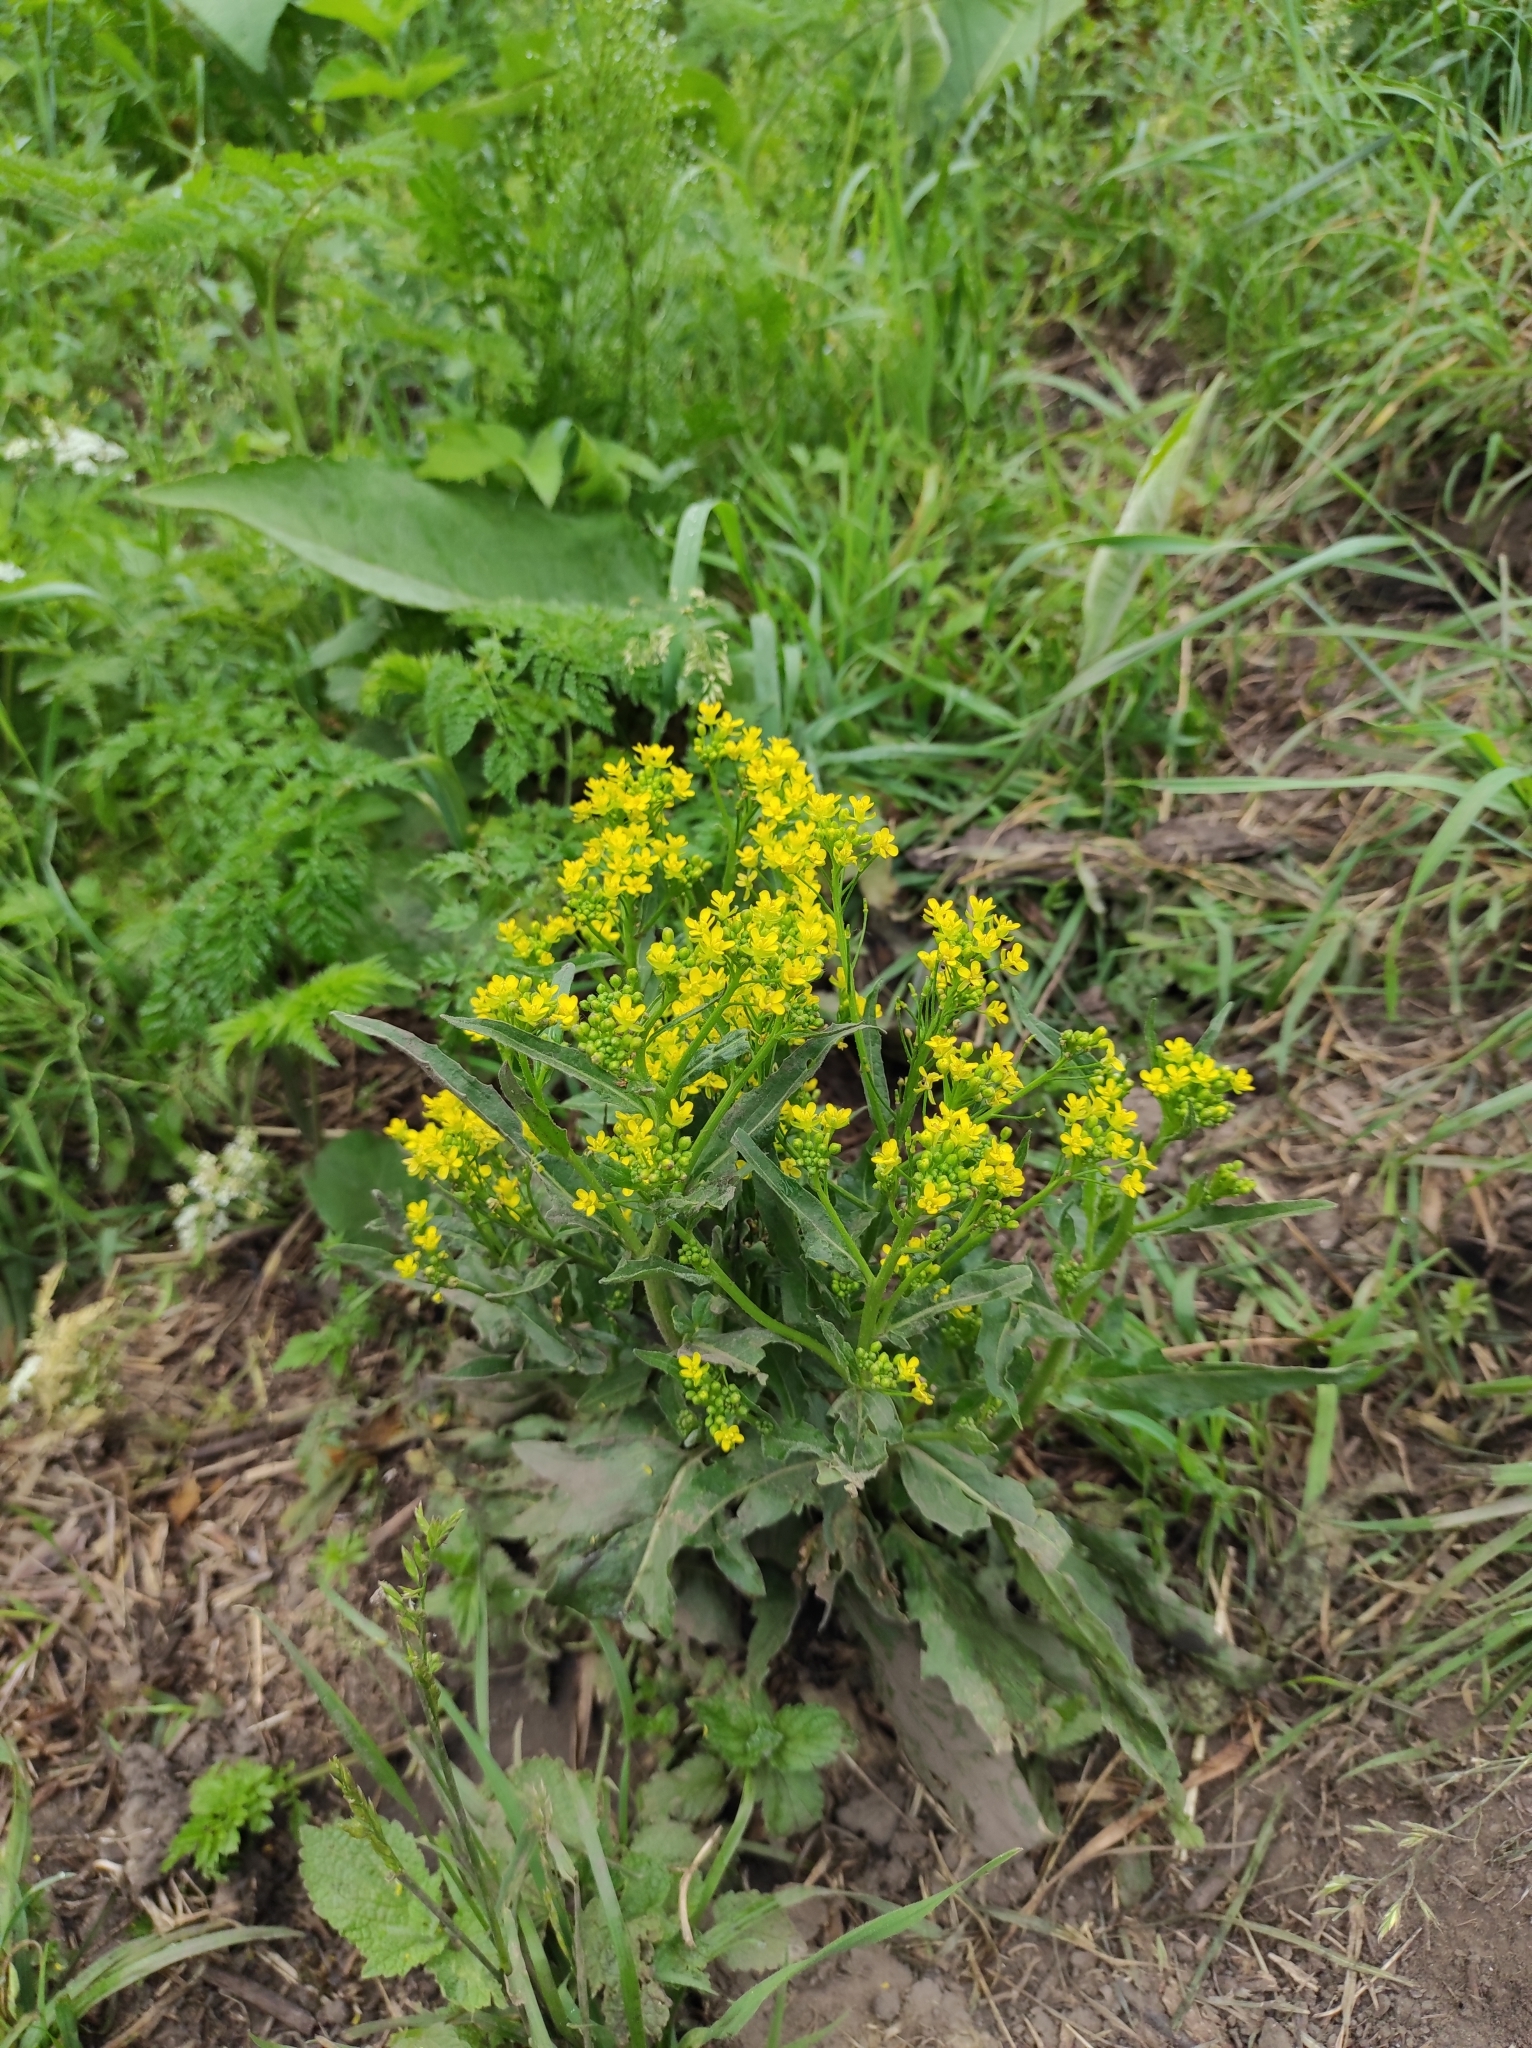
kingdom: Plantae
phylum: Tracheophyta
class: Magnoliopsida
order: Brassicales
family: Brassicaceae
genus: Bunias
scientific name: Bunias orientalis
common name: Warty-cabbage
